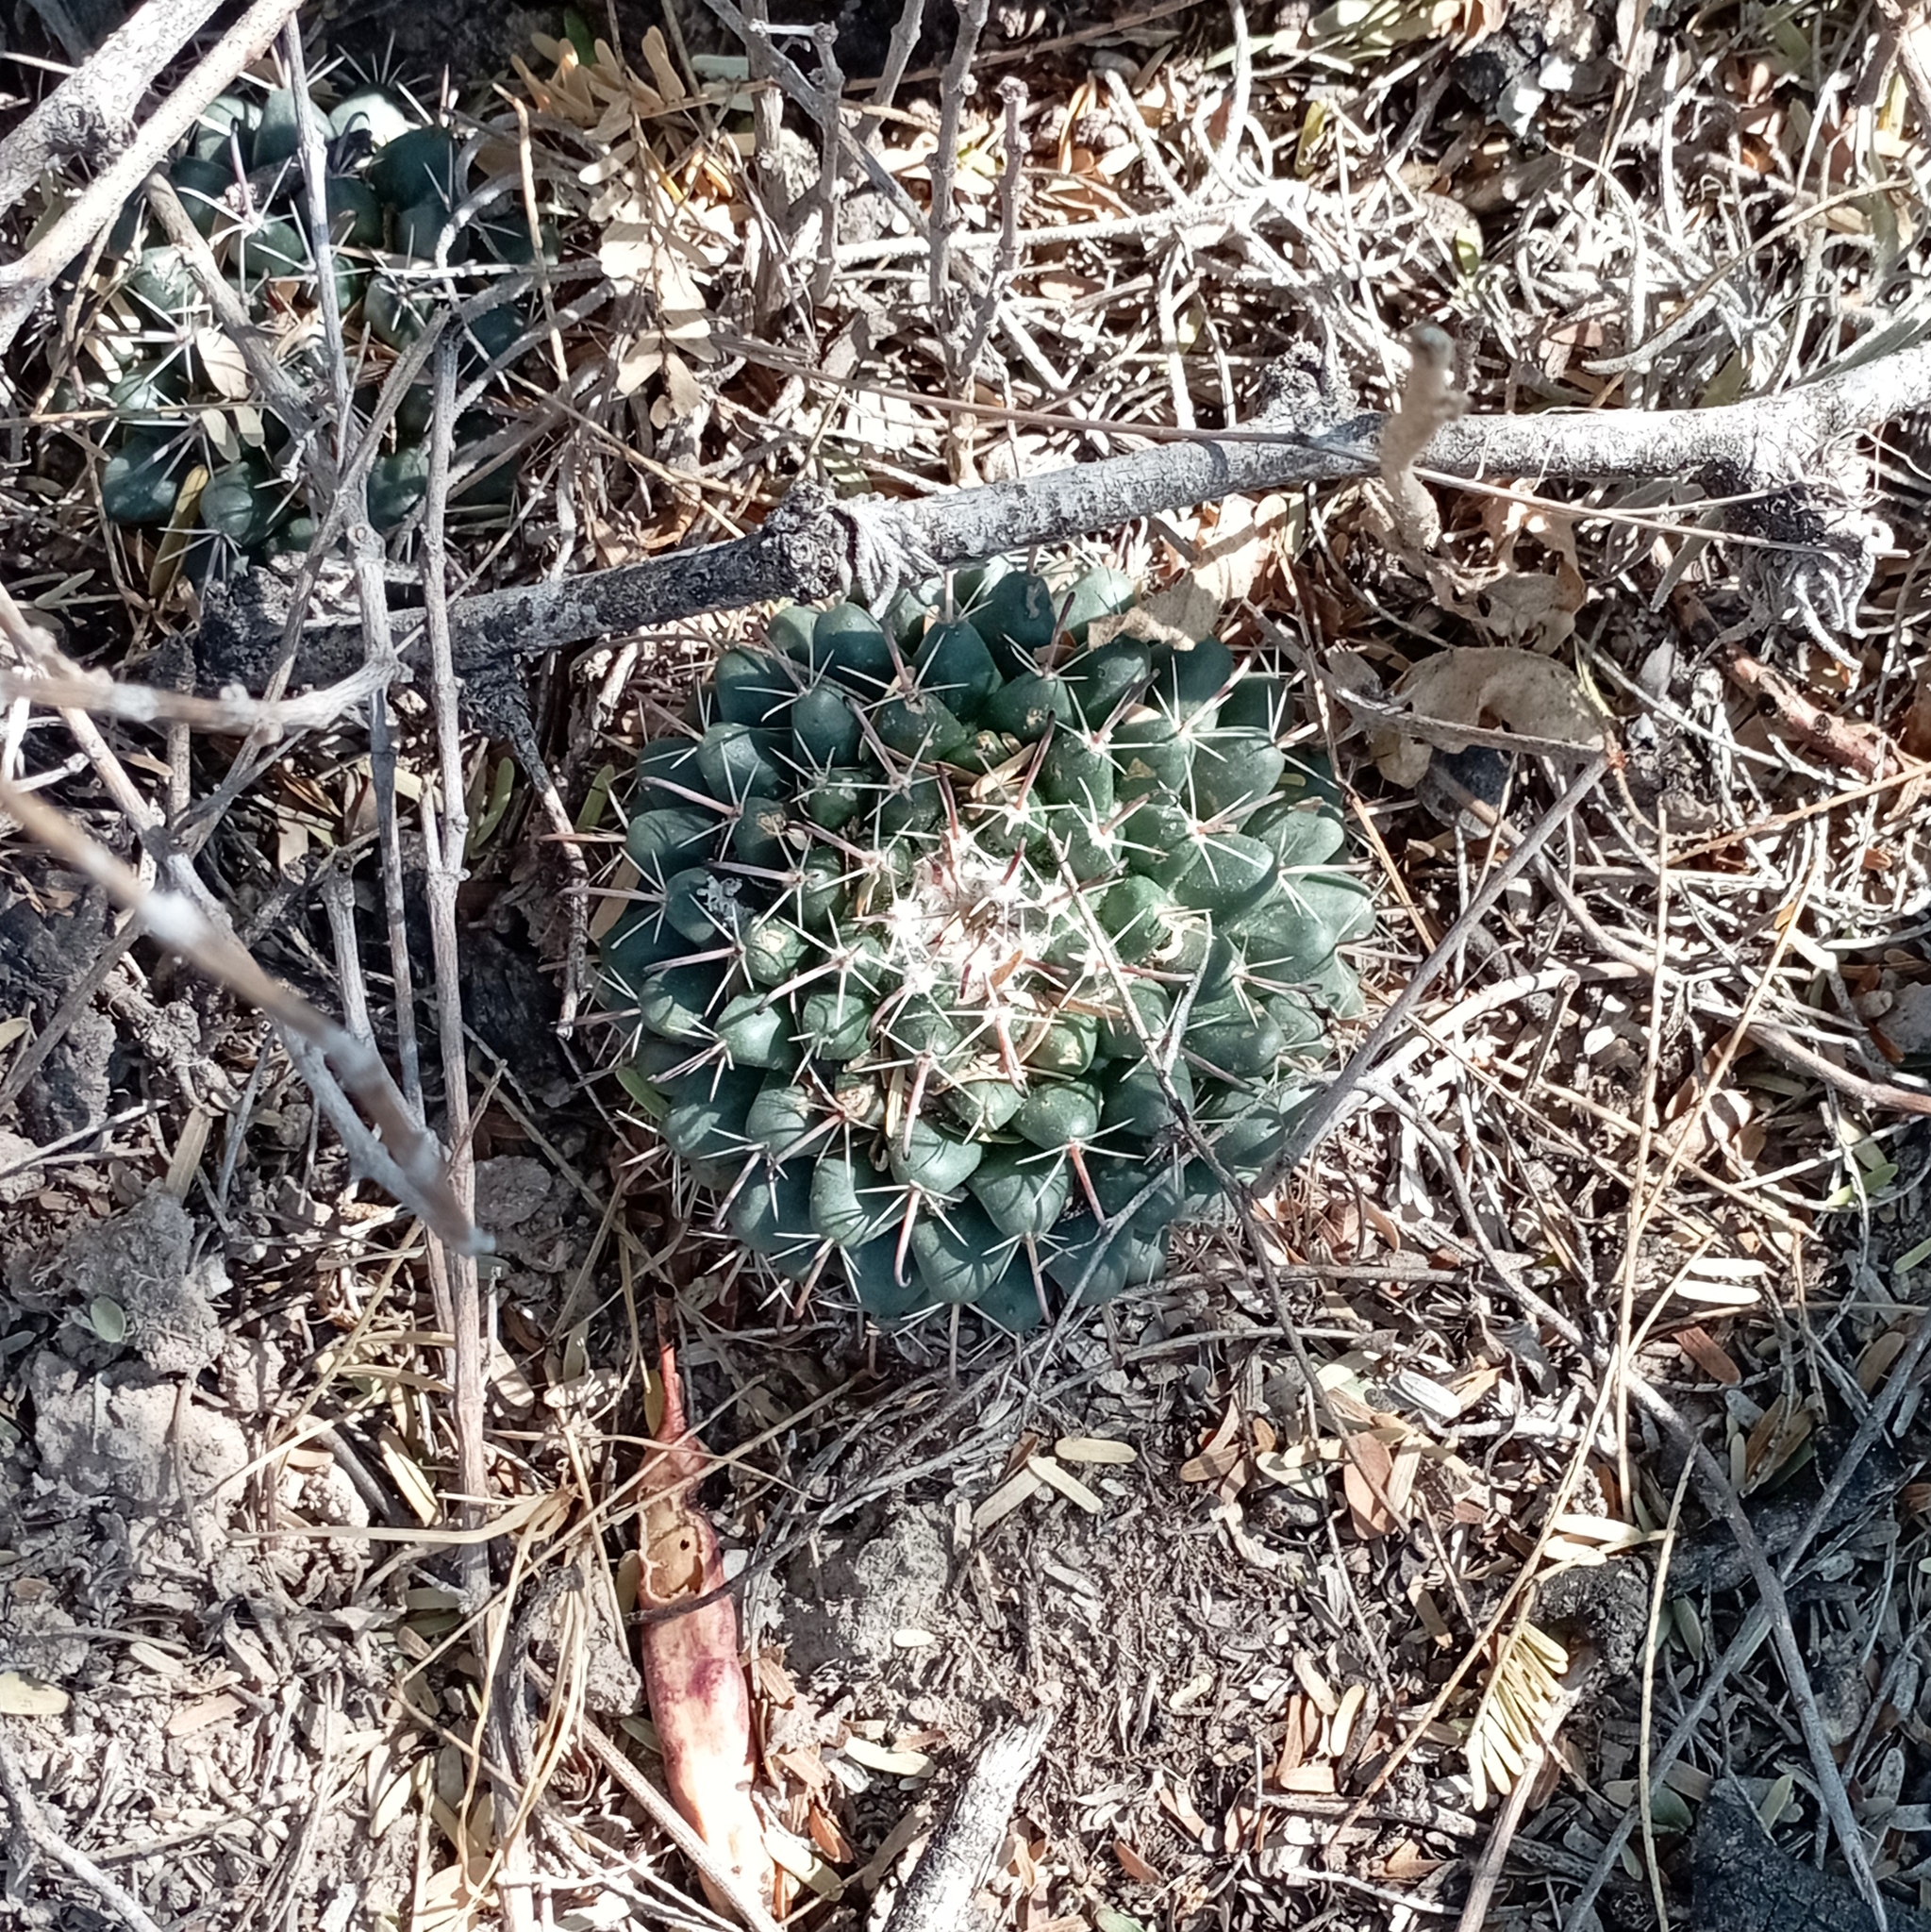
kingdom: Plantae
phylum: Tracheophyta
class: Magnoliopsida
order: Caryophyllales
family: Cactaceae
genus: Mammillaria
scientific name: Mammillaria uncinata
